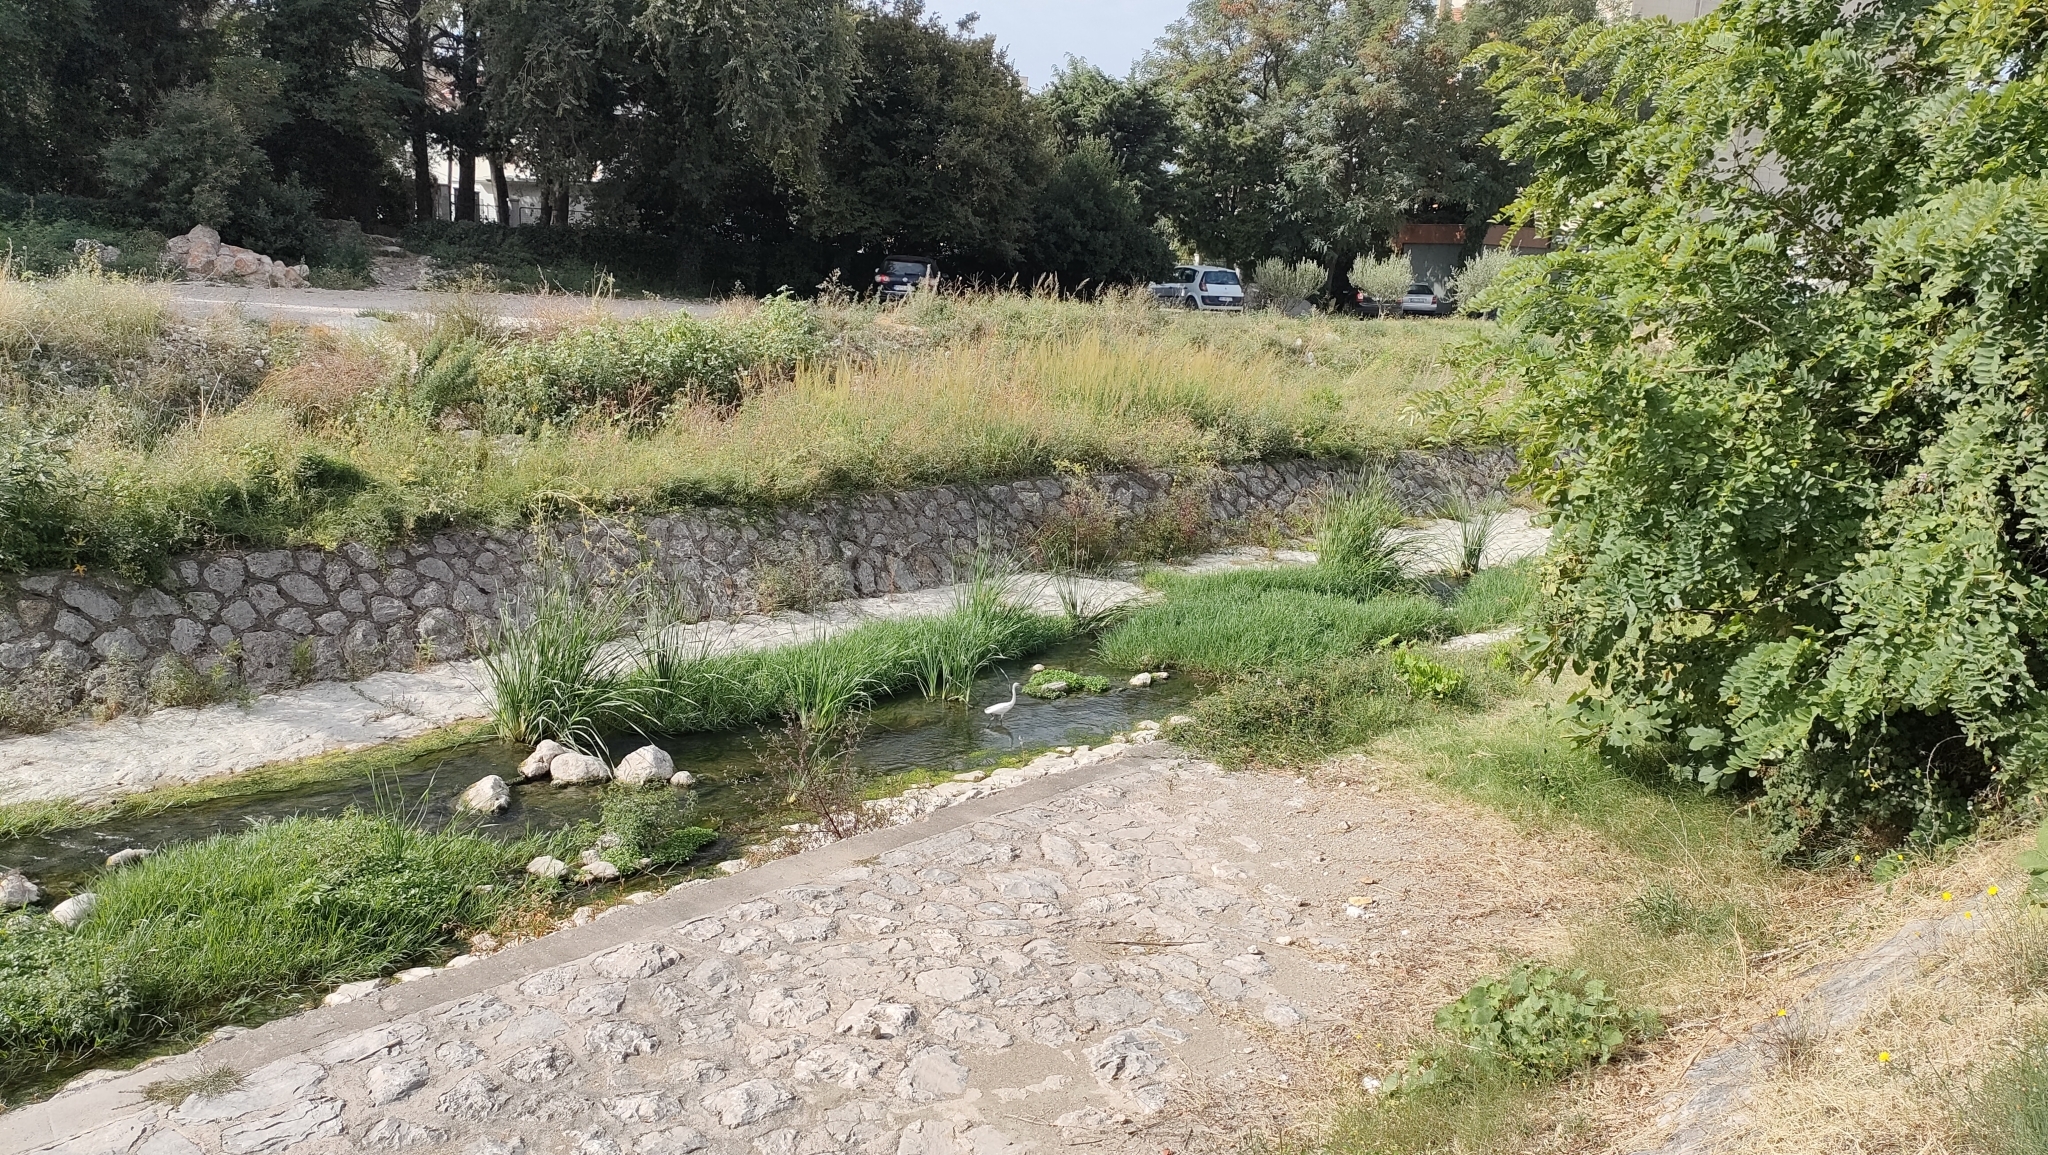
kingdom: Animalia
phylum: Chordata
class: Aves
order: Pelecaniformes
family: Ardeidae
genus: Egretta
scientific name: Egretta garzetta
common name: Little egret
